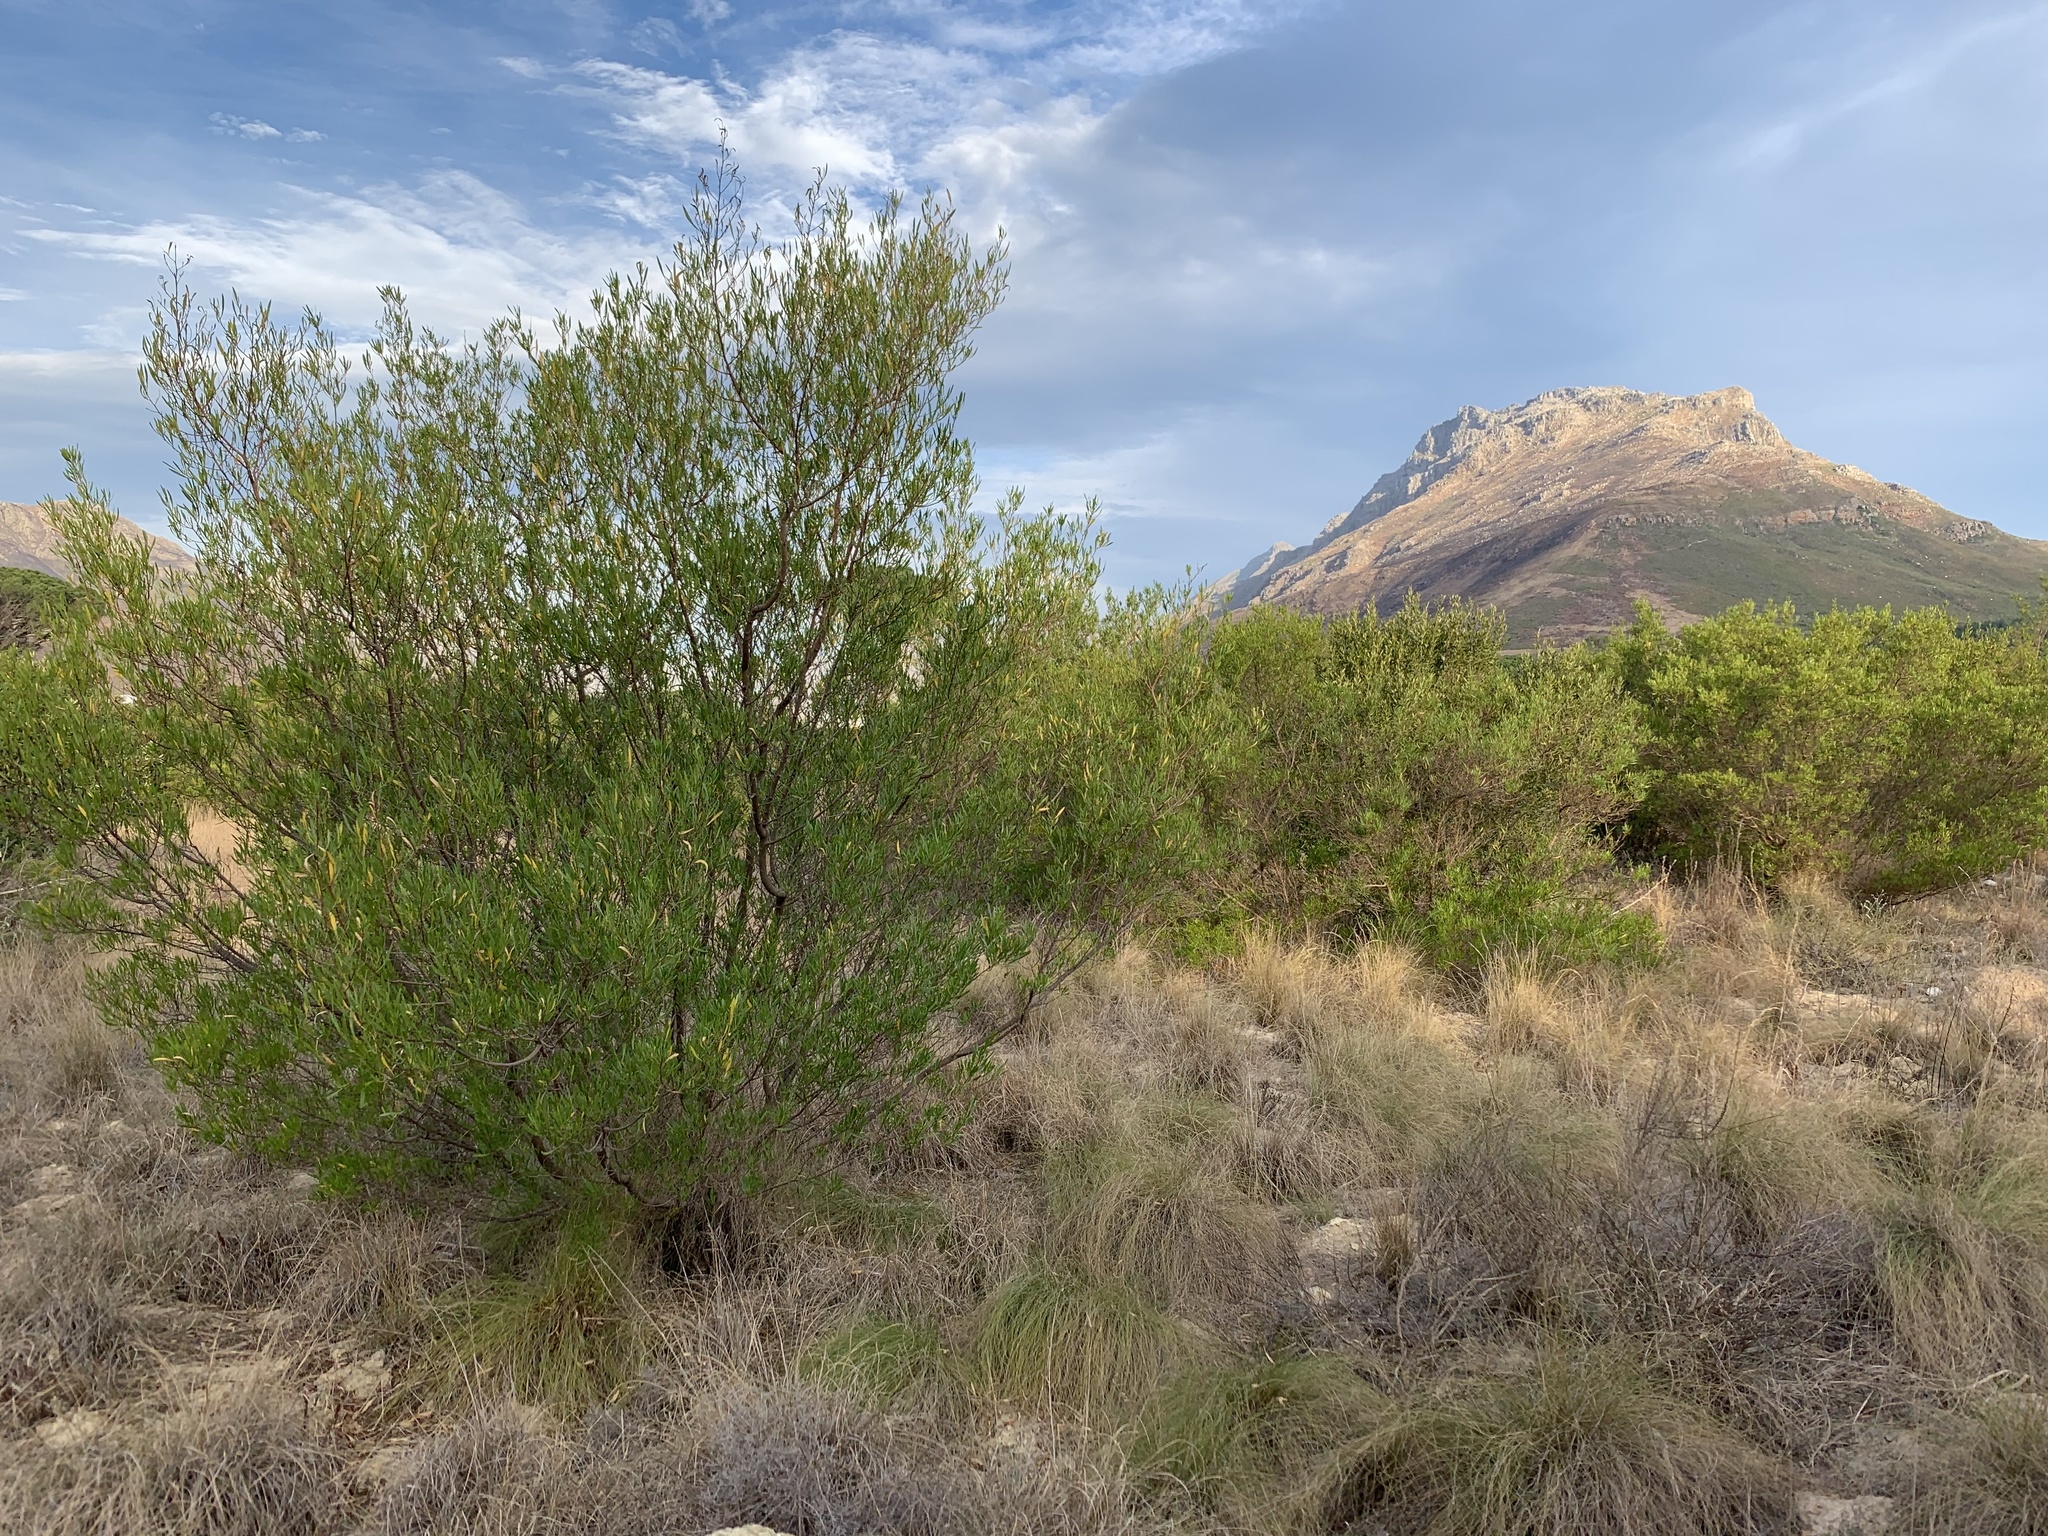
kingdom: Plantae
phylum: Tracheophyta
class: Magnoliopsida
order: Sapindales
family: Sapindaceae
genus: Dodonaea
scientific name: Dodonaea viscosa
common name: Hopbush
